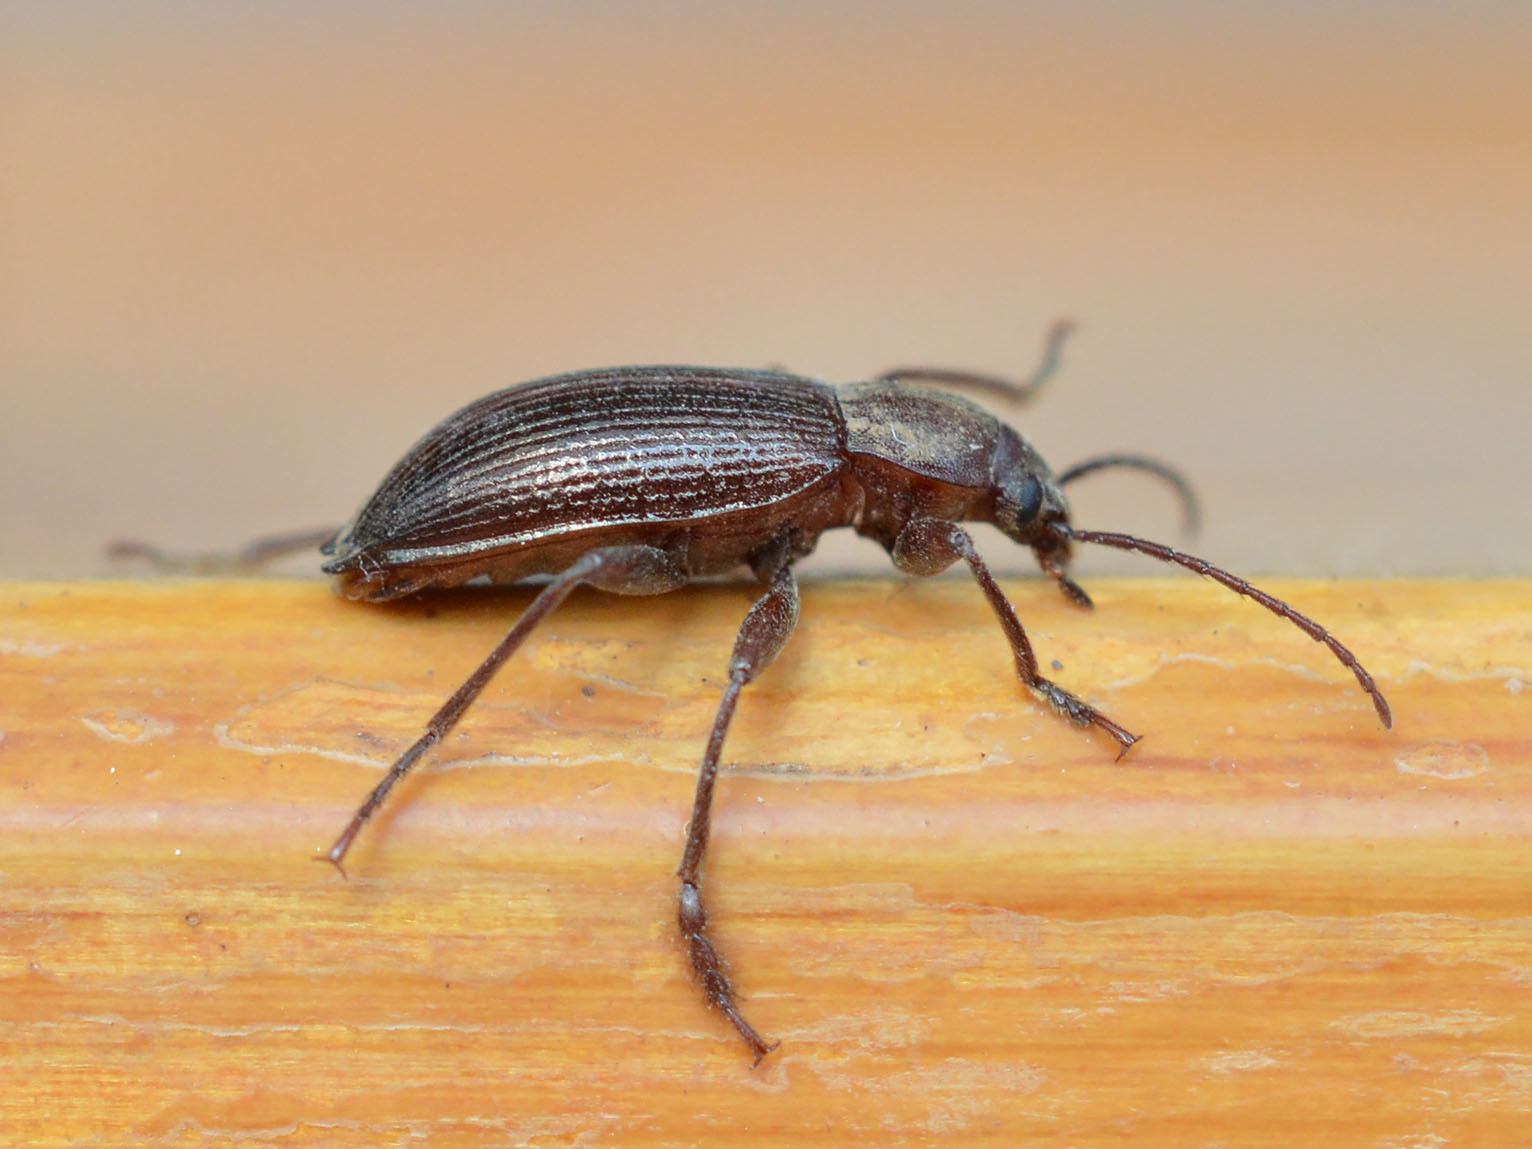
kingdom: Animalia
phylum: Arthropoda
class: Insecta
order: Coleoptera
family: Tenebrionidae
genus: Stenomax
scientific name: Stenomax aeneus
